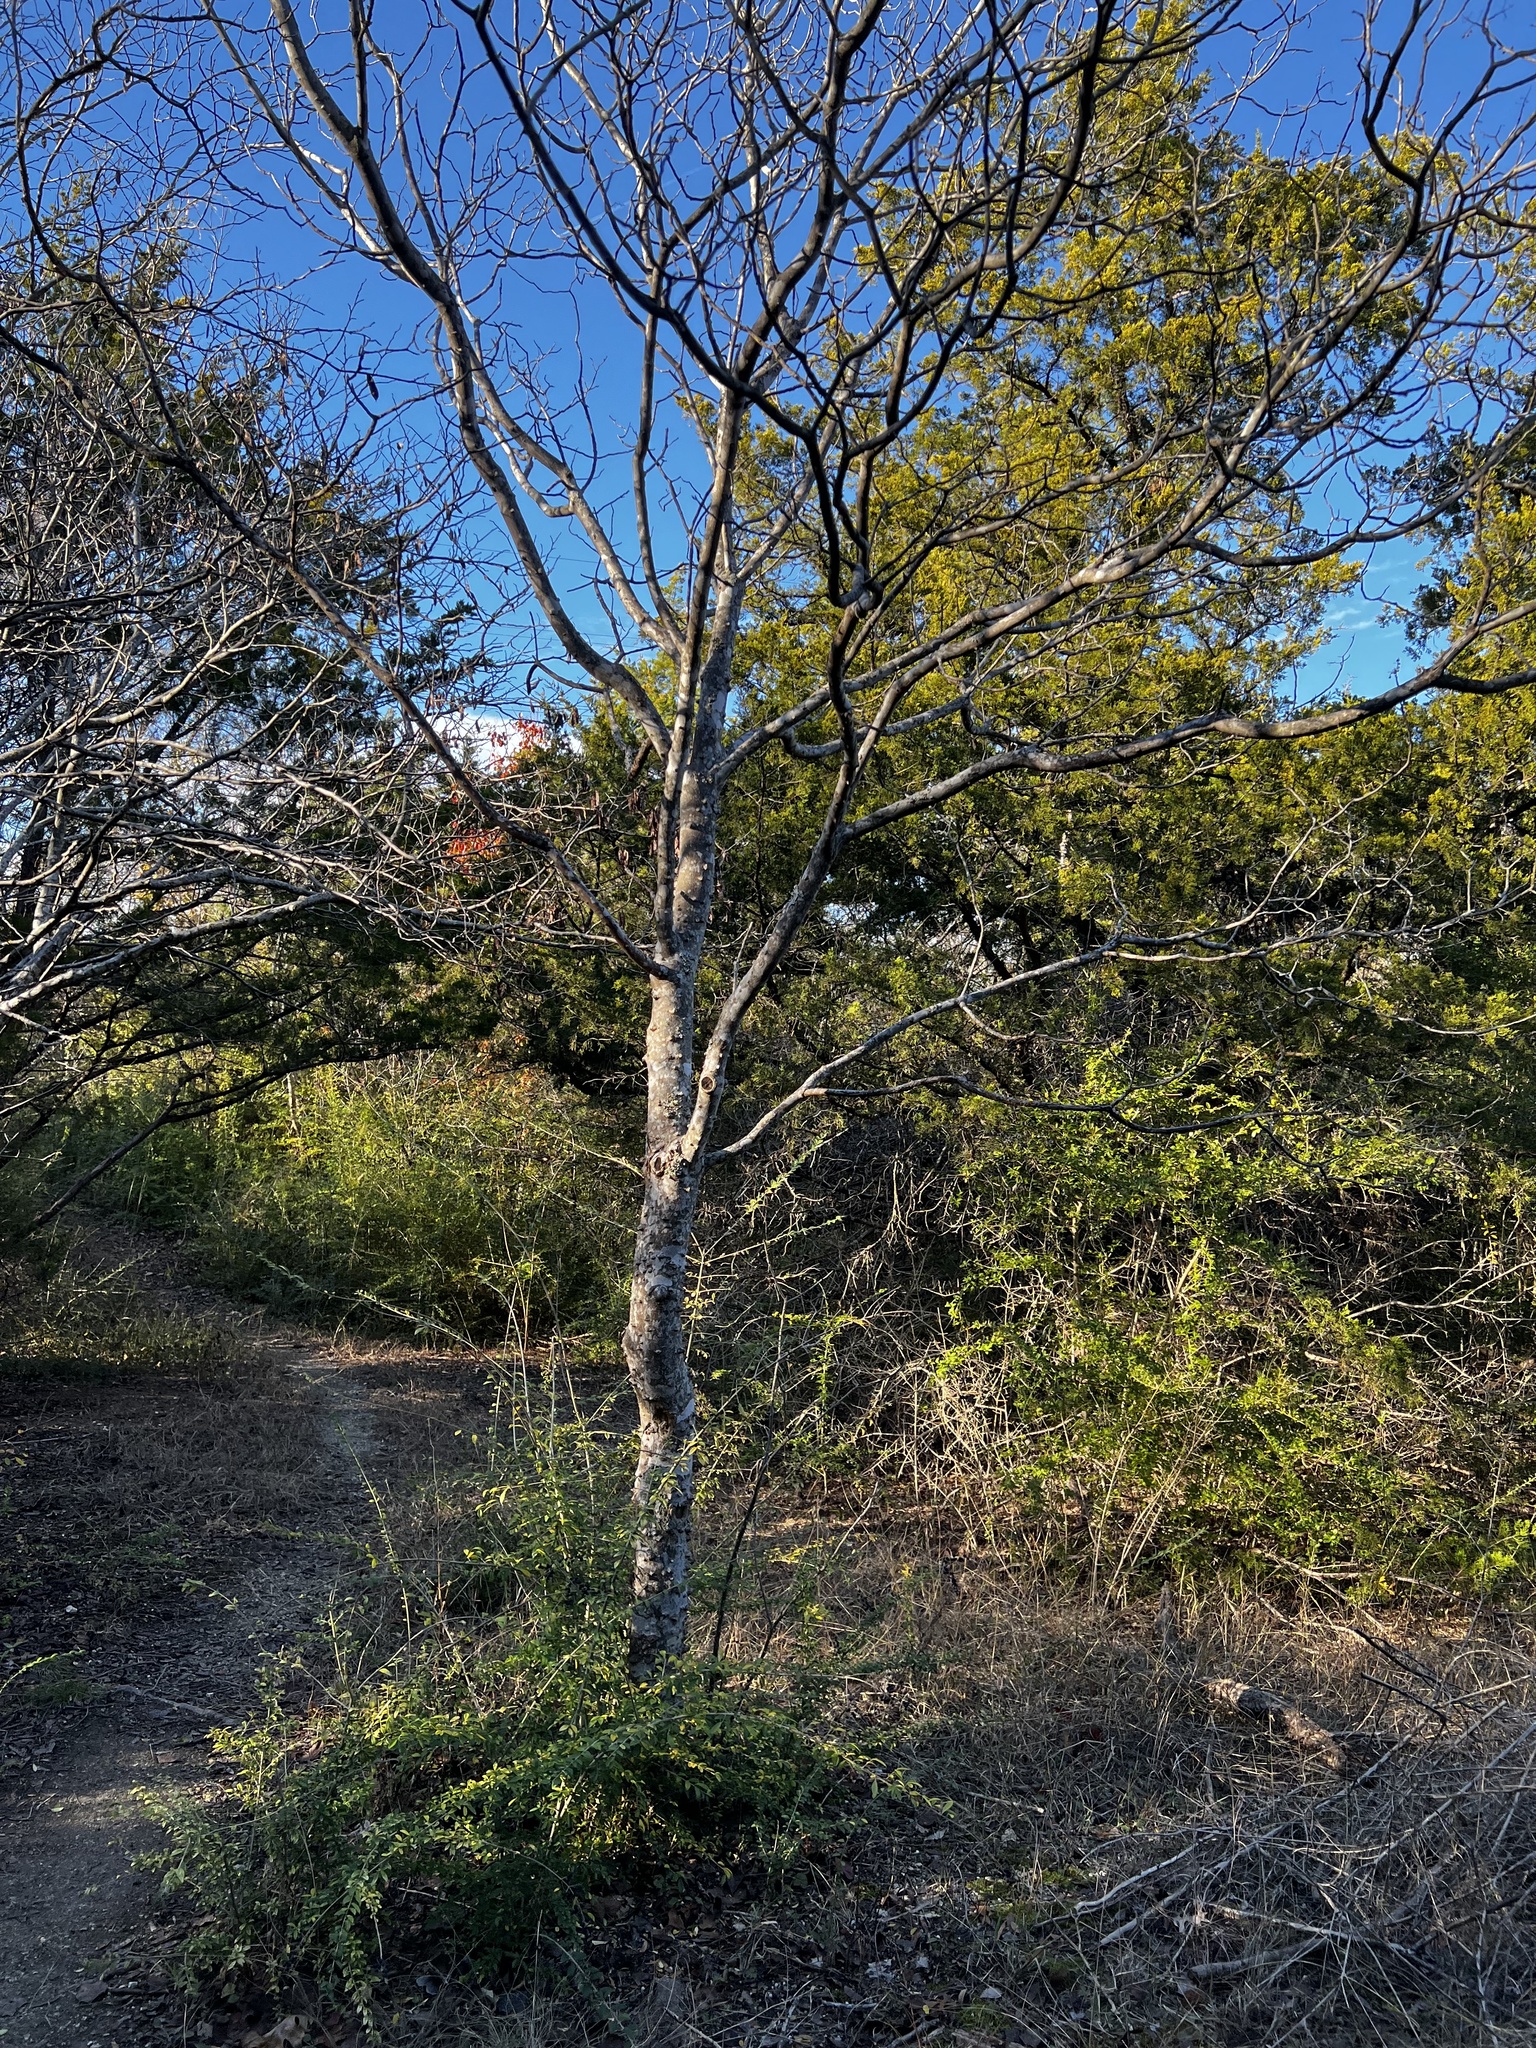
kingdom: Plantae
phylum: Tracheophyta
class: Magnoliopsida
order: Sapindales
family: Rutaceae
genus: Zanthoxylum
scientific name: Zanthoxylum clava-herculis
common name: Hercules'-club
